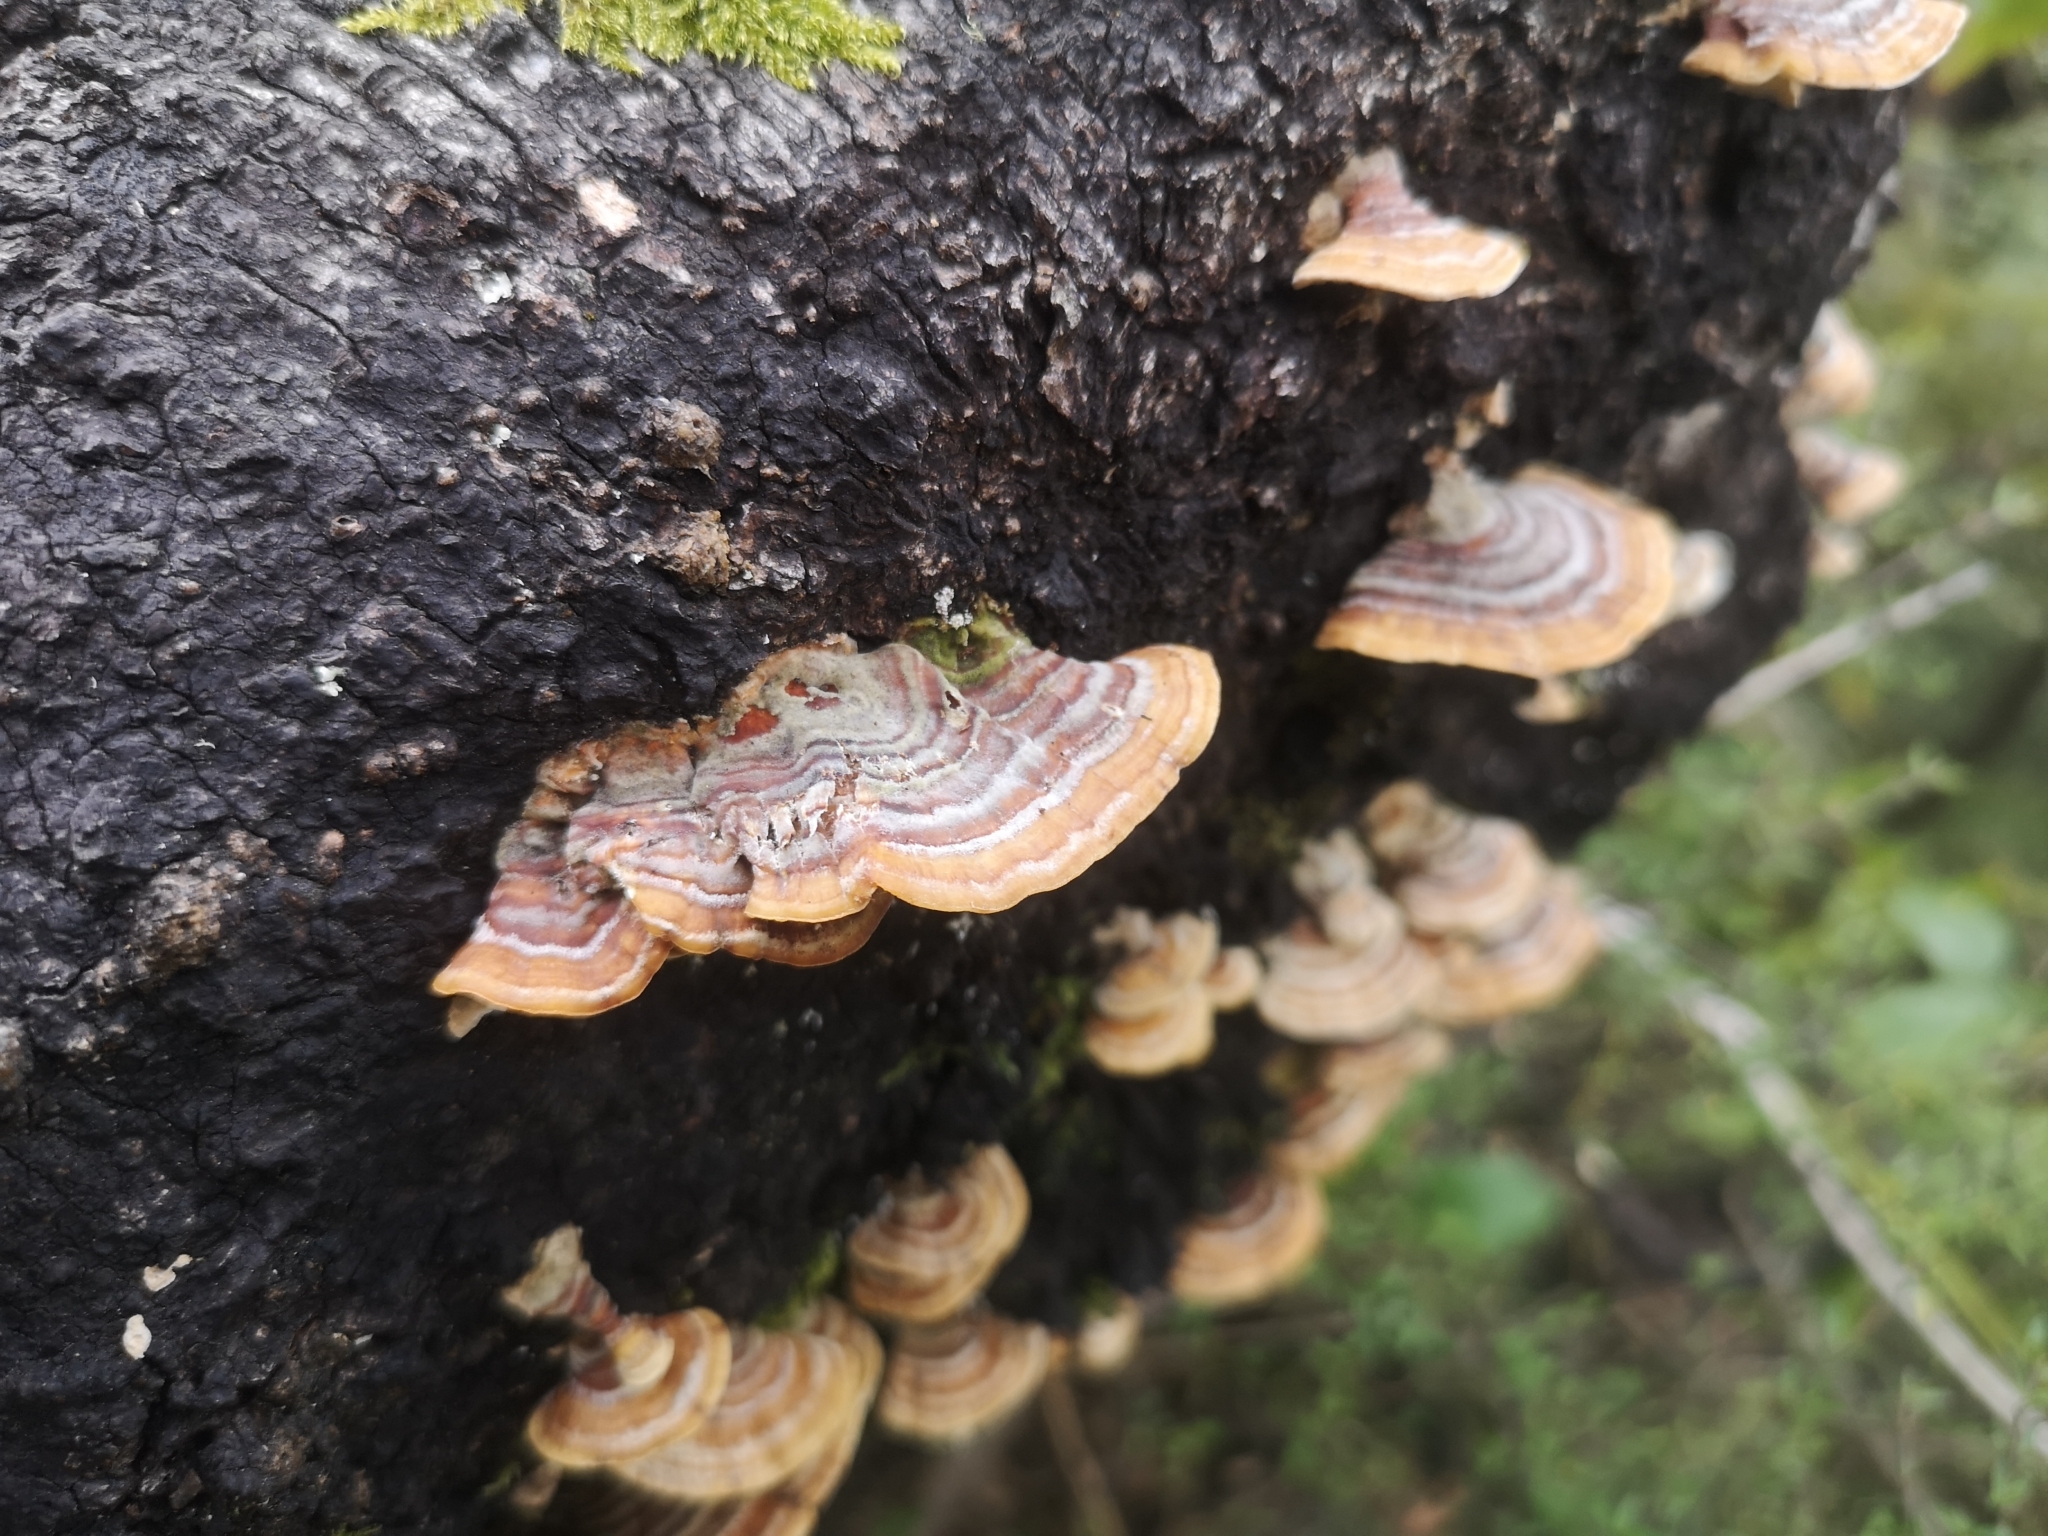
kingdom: Fungi
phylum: Basidiomycota
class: Agaricomycetes
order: Russulales
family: Stereaceae
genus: Stereum
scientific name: Stereum versicolor
